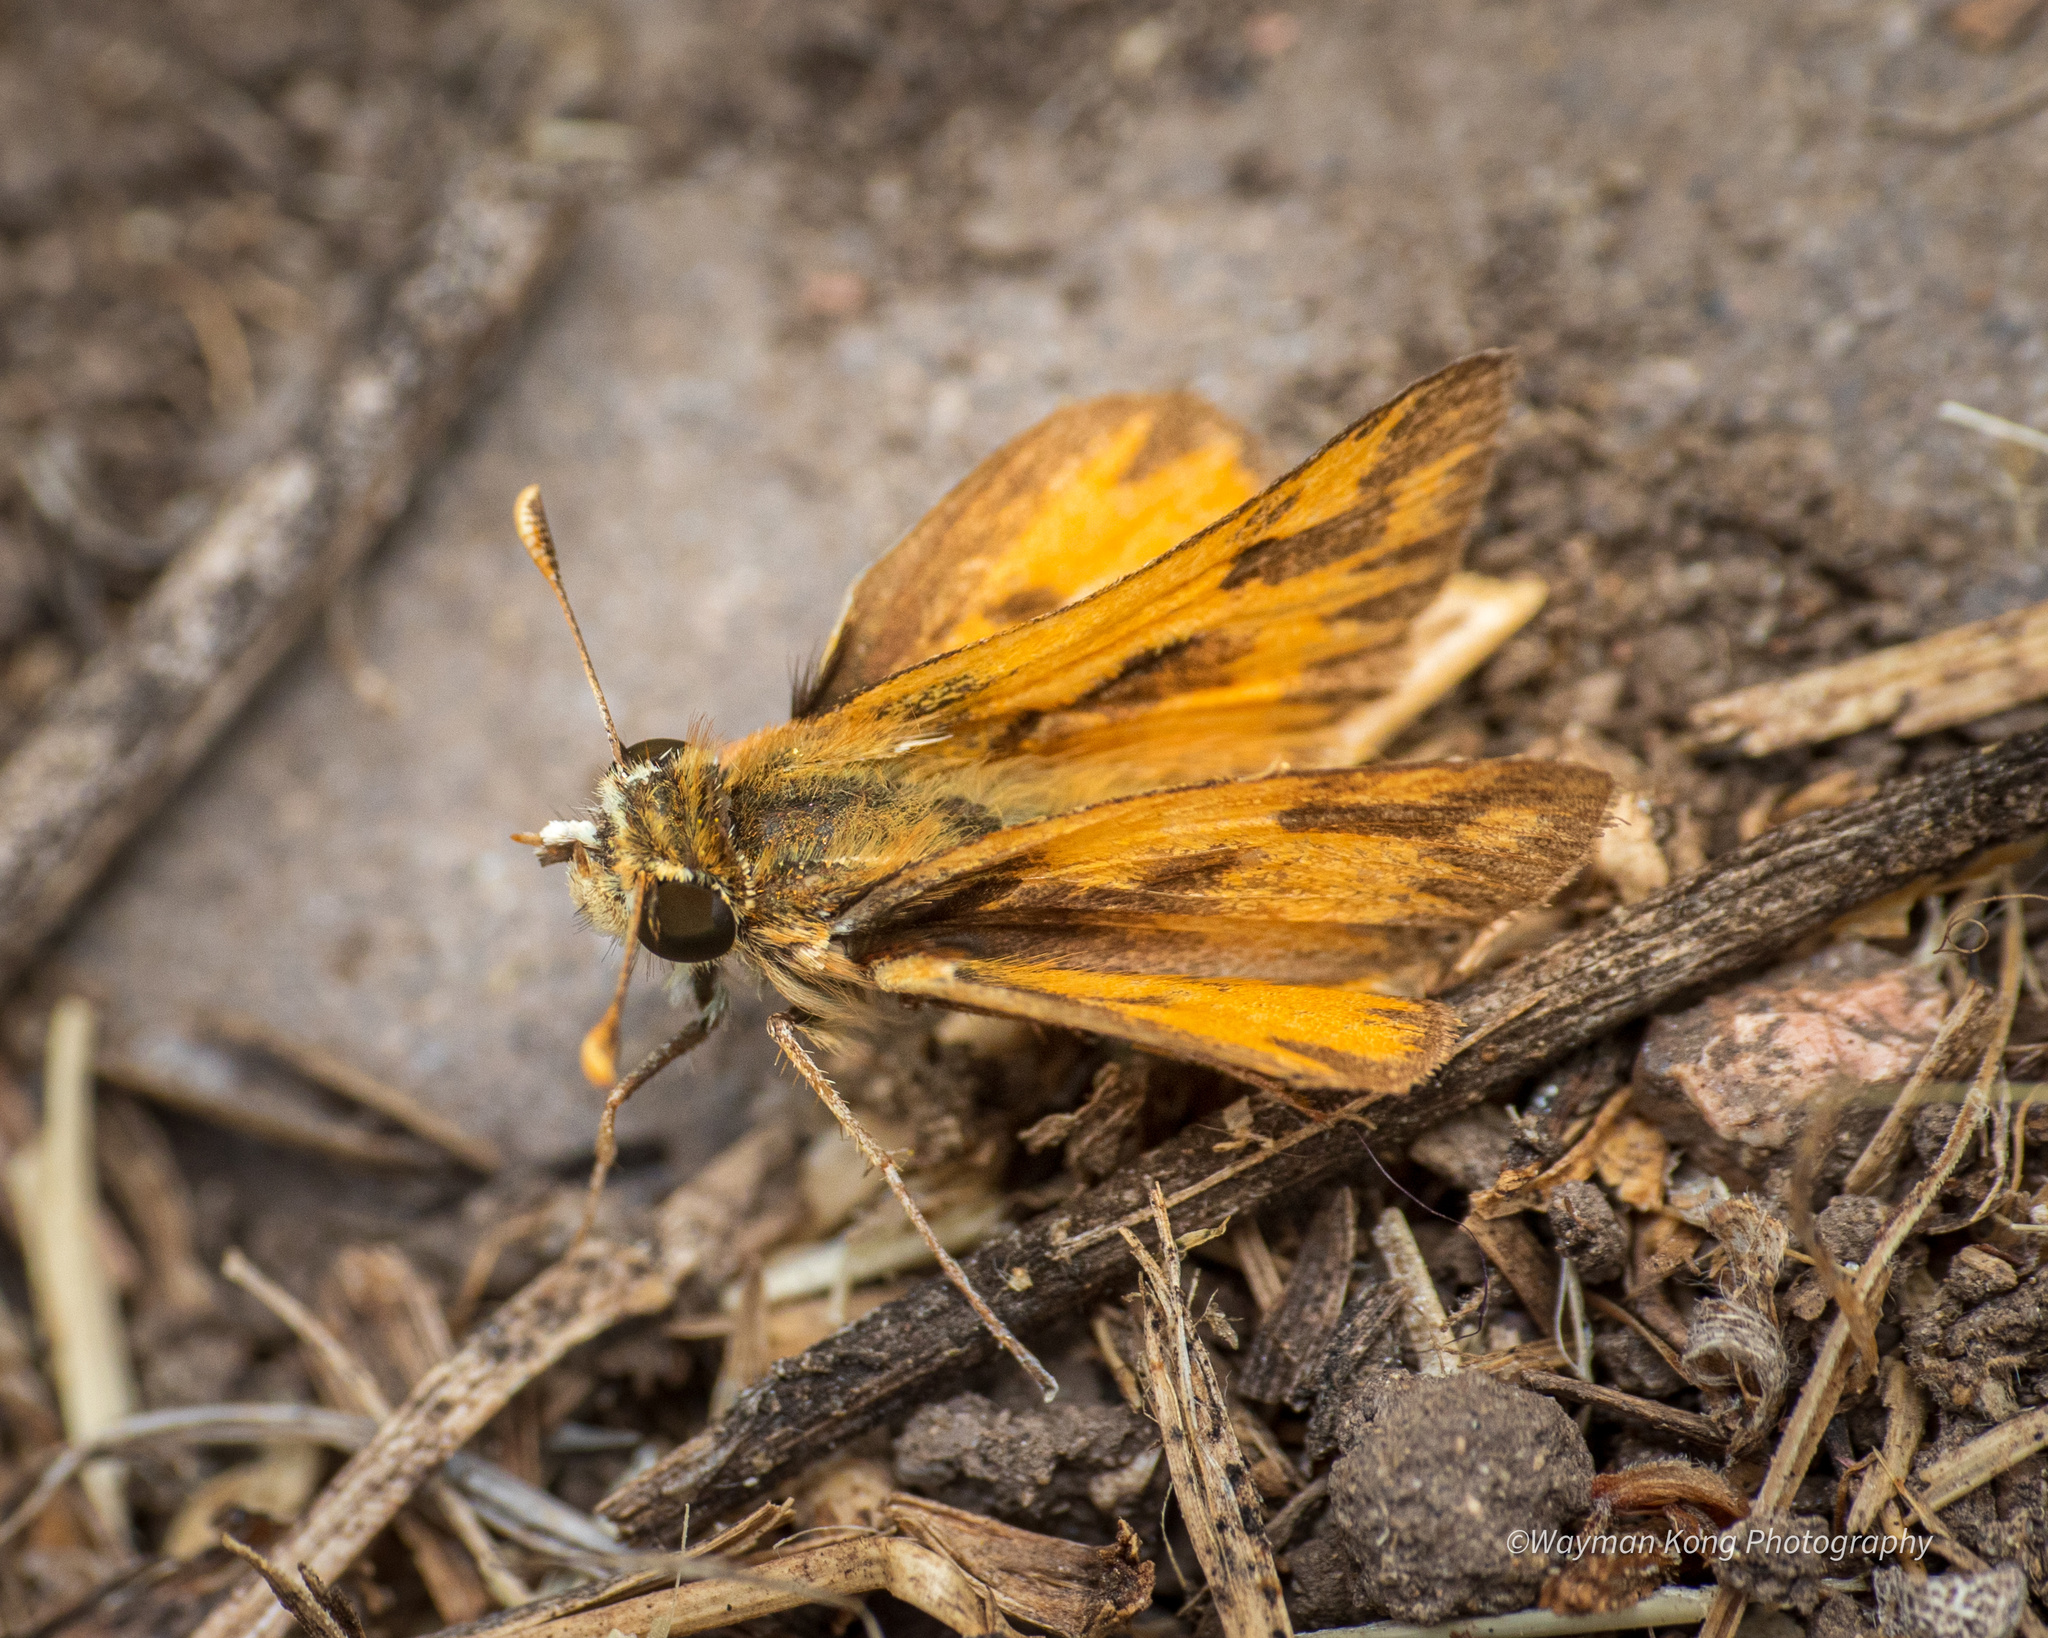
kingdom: Animalia
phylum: Arthropoda
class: Insecta
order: Lepidoptera
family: Hesperiidae
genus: Hylephila
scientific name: Hylephila fasciolata
